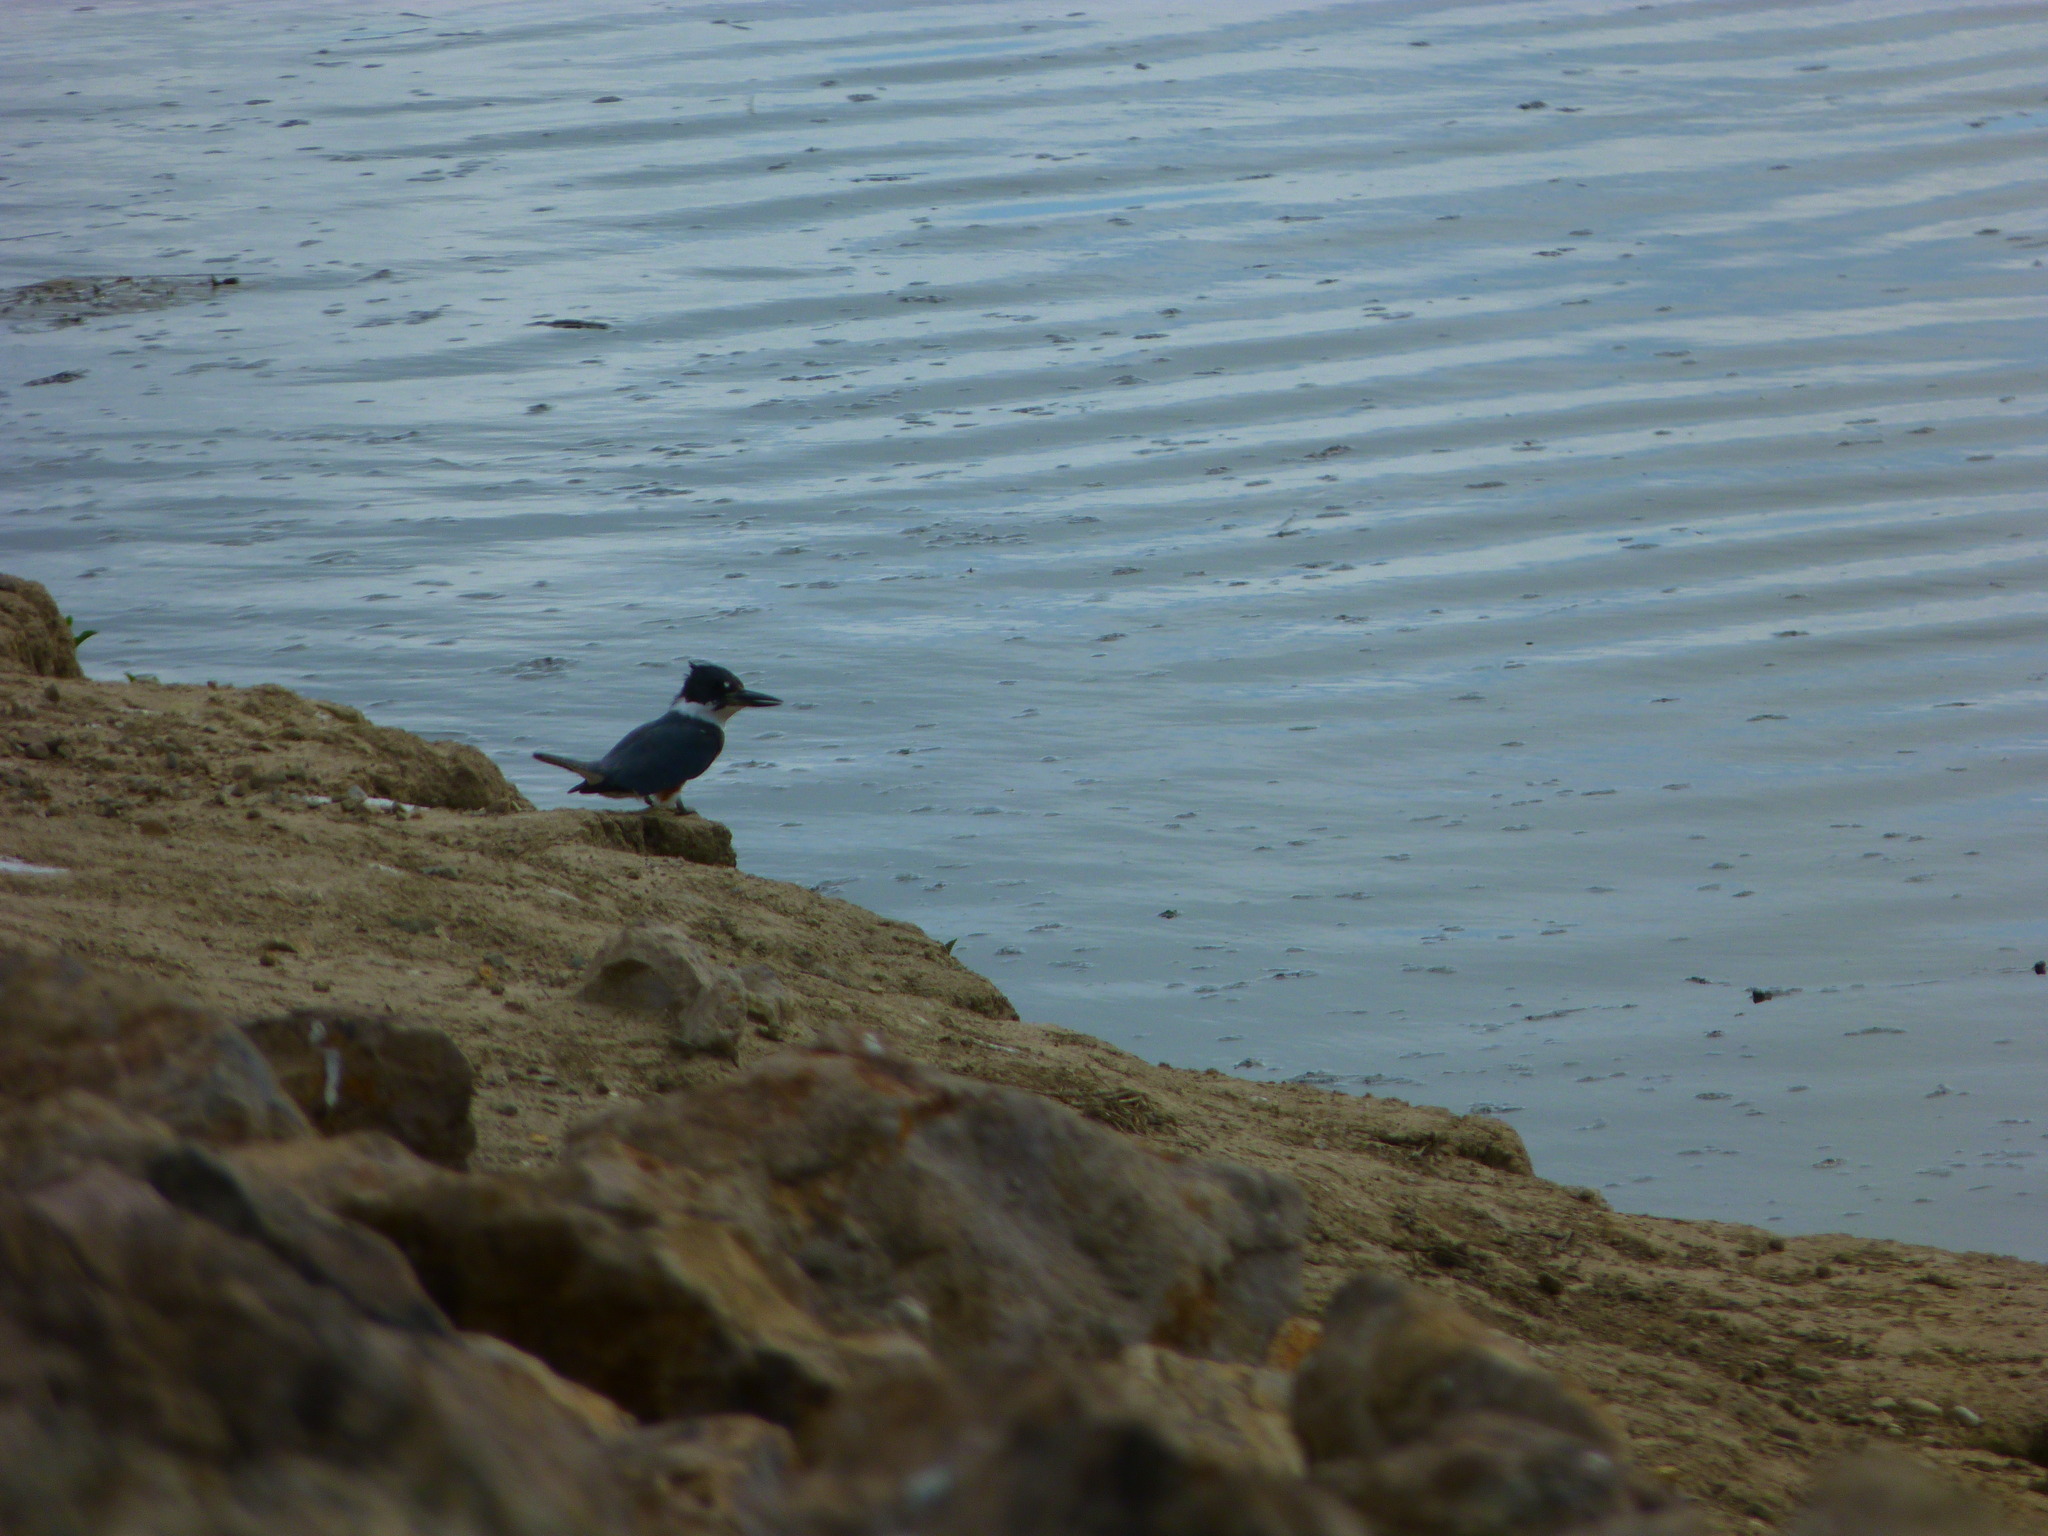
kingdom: Animalia
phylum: Chordata
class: Aves
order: Coraciiformes
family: Alcedinidae
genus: Megaceryle
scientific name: Megaceryle alcyon
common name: Belted kingfisher
